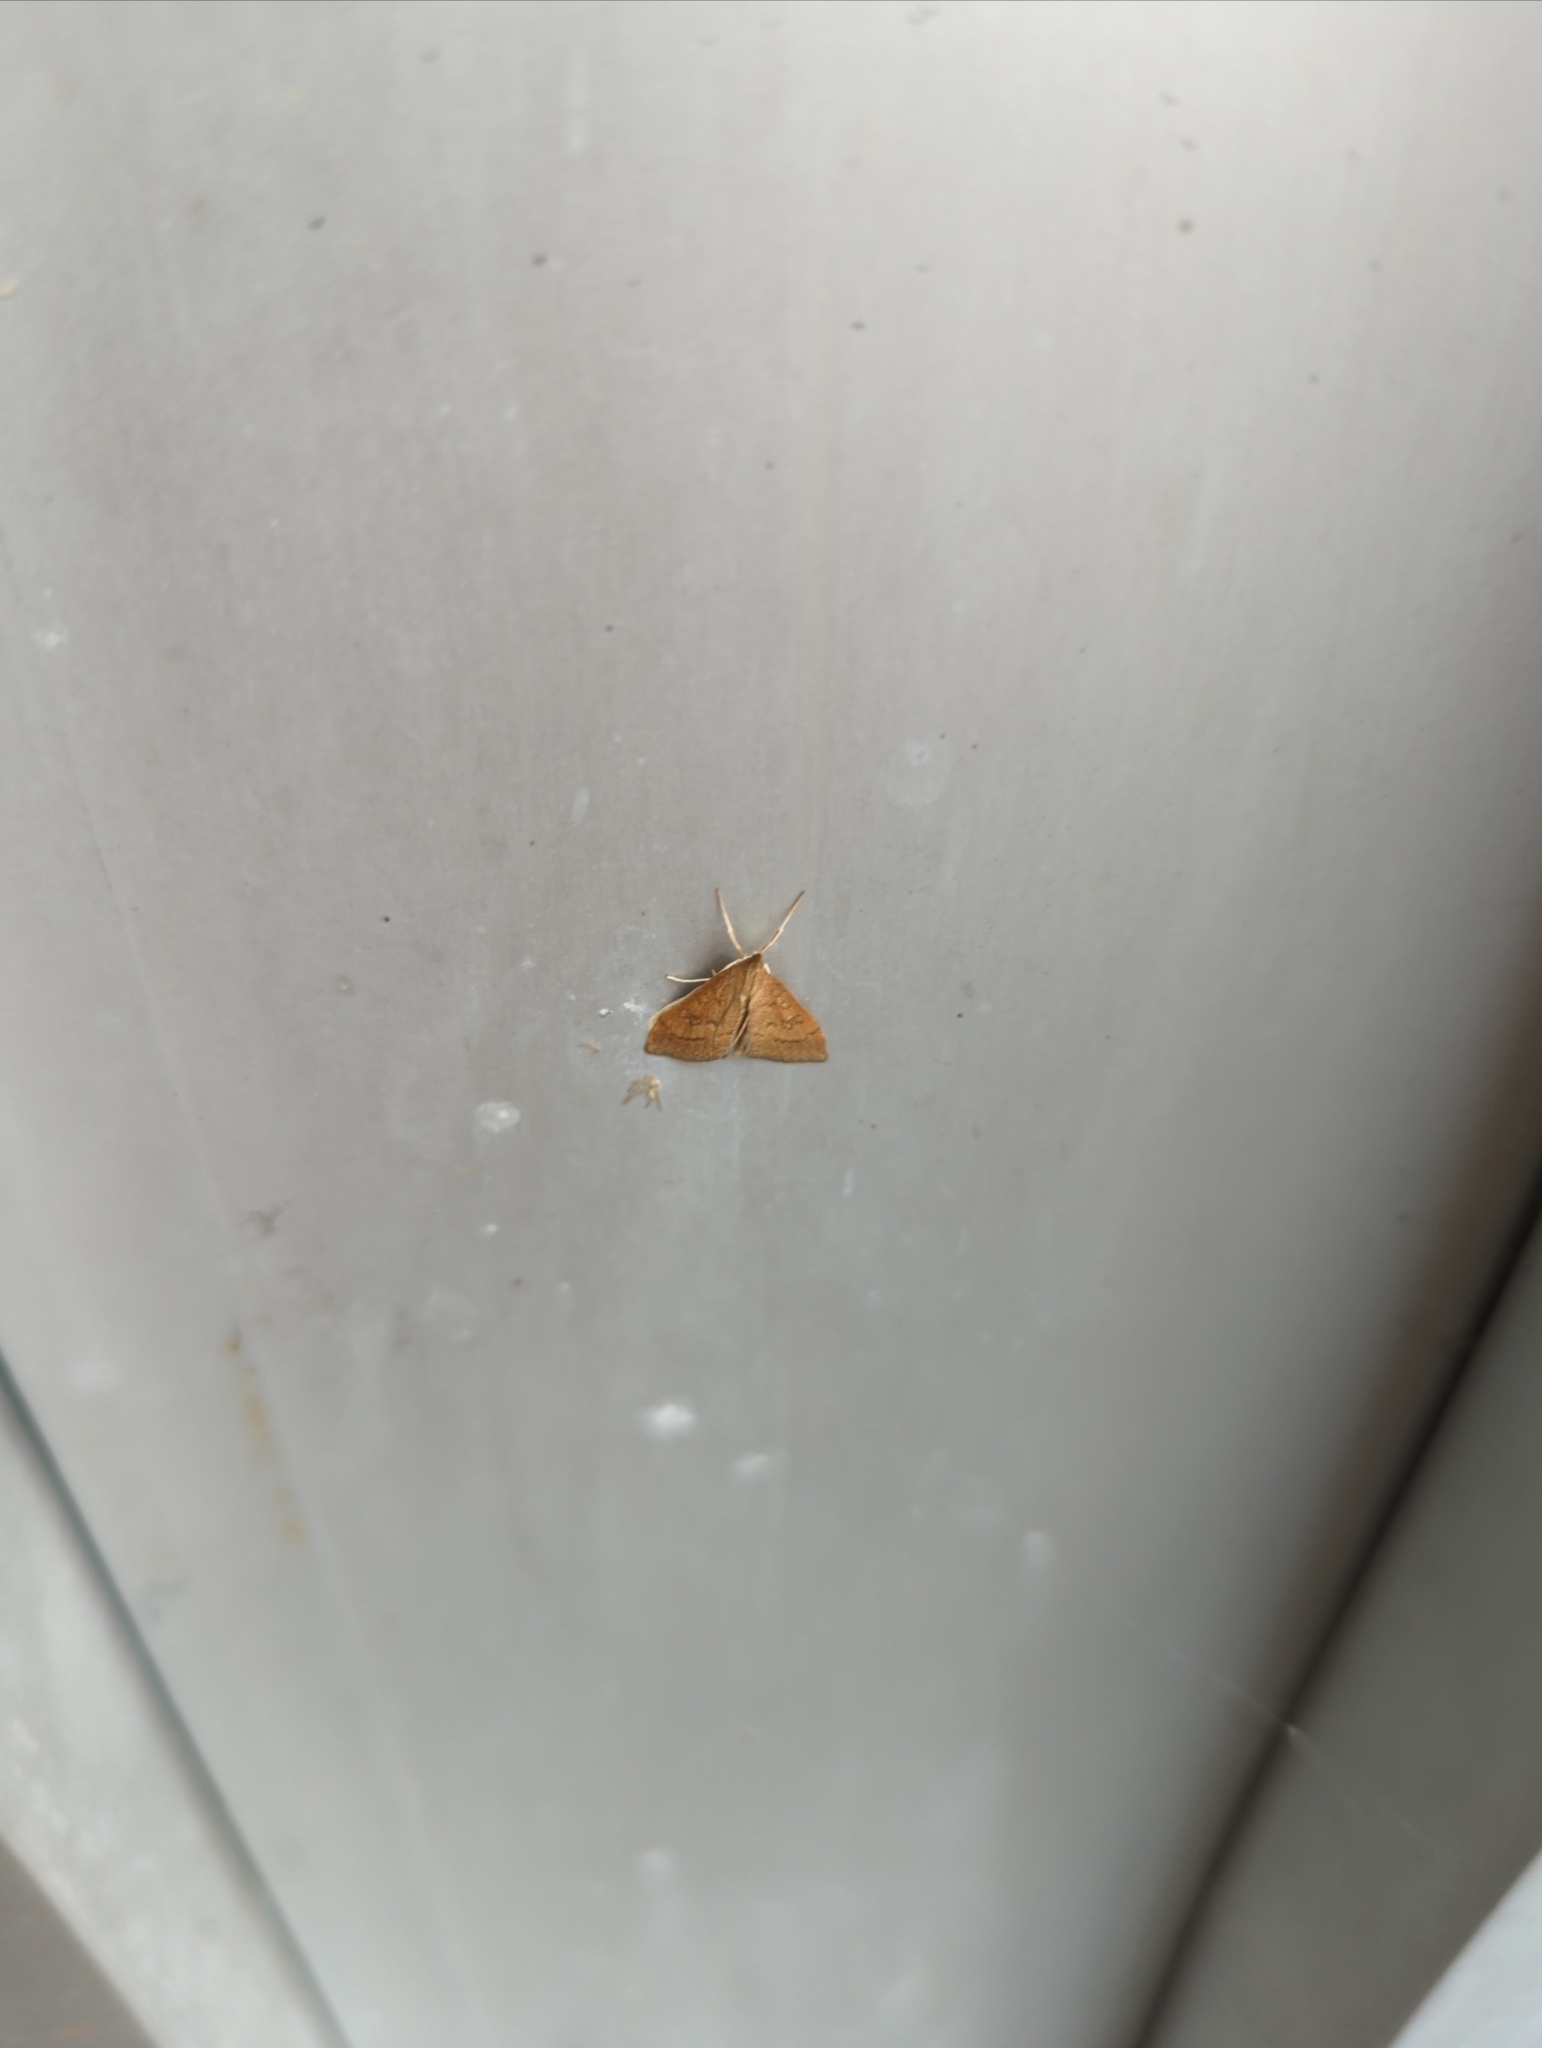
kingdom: Animalia
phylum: Arthropoda
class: Insecta
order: Lepidoptera
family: Crambidae
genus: Achyra
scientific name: Achyra rantalis
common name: Garden webworm
